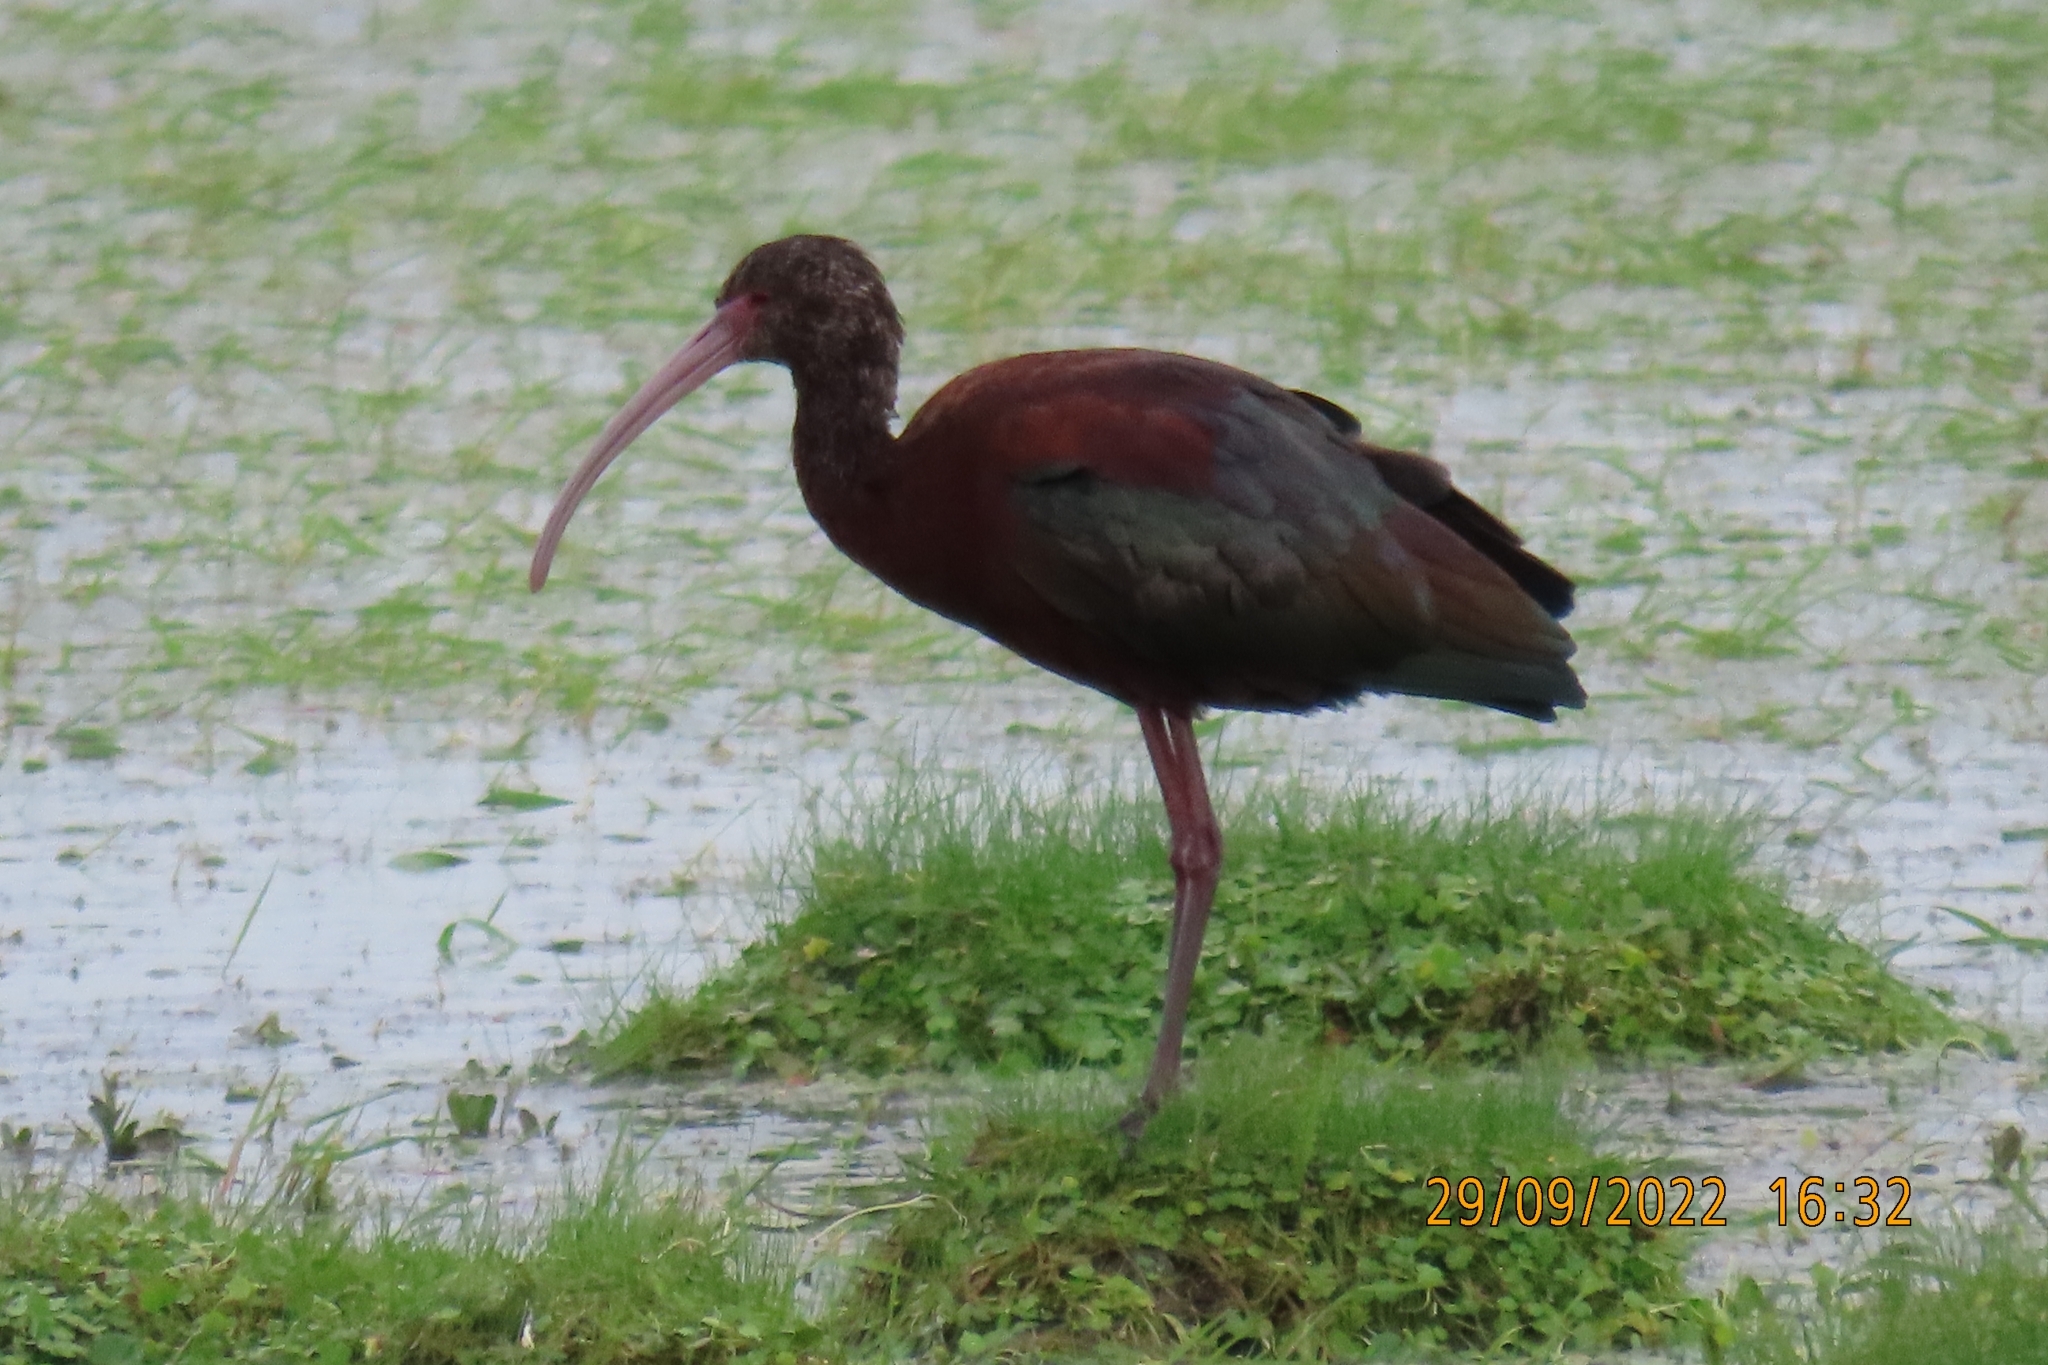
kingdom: Animalia
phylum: Chordata
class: Aves
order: Pelecaniformes
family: Threskiornithidae
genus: Plegadis
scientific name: Plegadis chihi
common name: White-faced ibis
